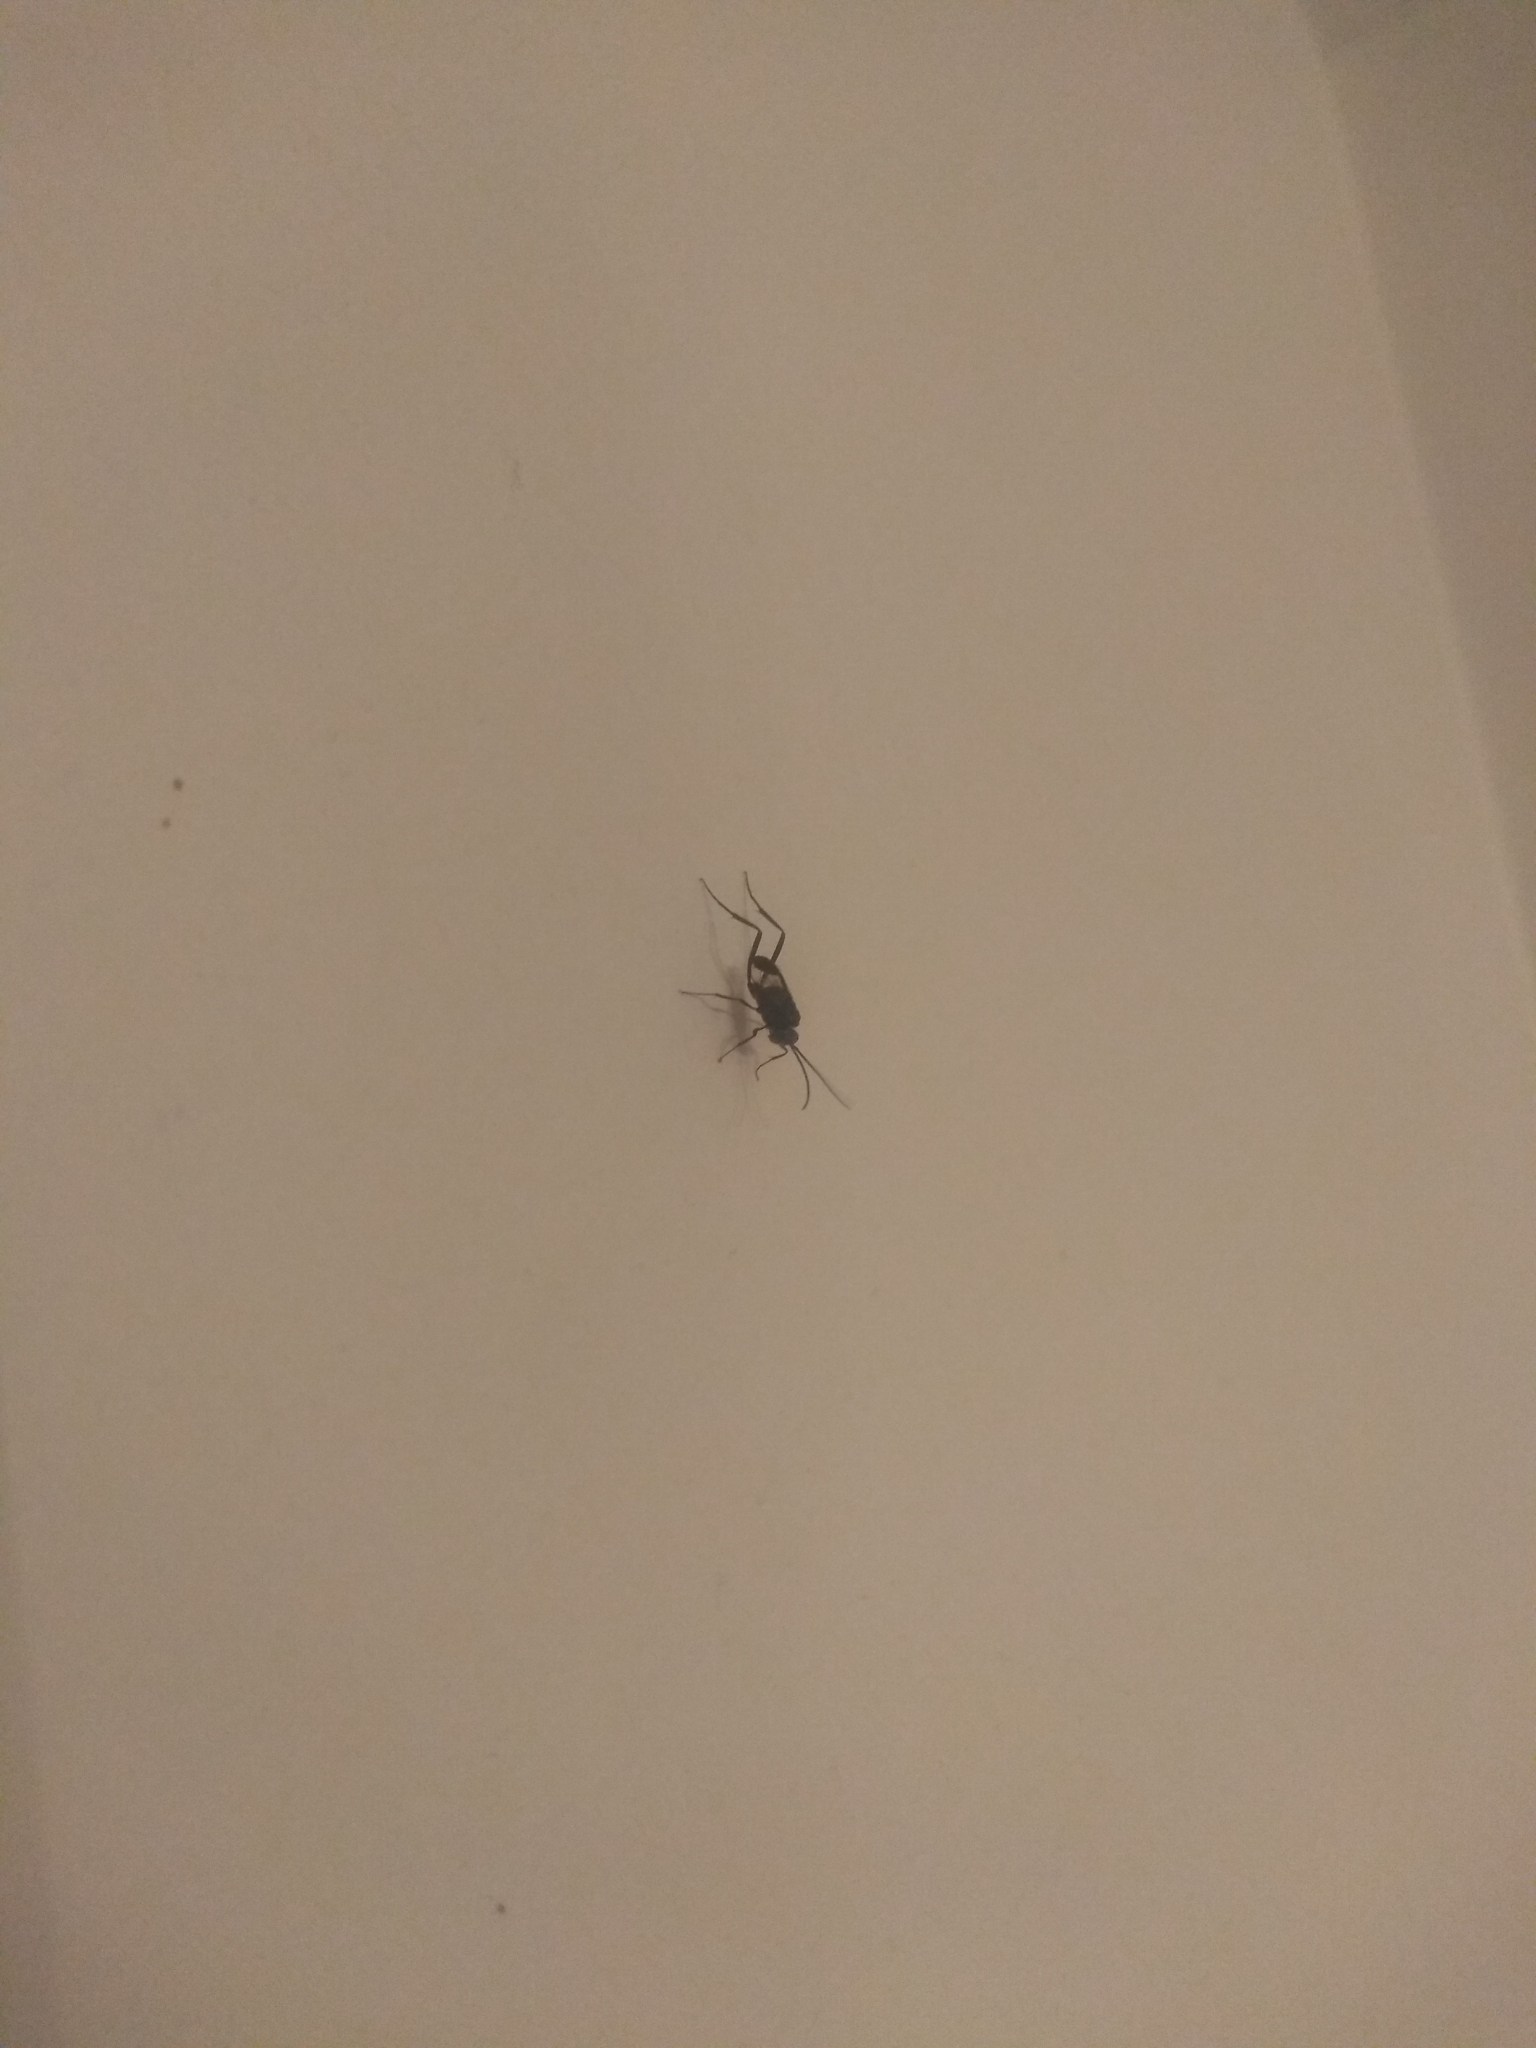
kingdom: Animalia
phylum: Arthropoda
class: Insecta
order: Hymenoptera
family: Evaniidae
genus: Evania
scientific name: Evania appendigaster
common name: Ensign wasp
